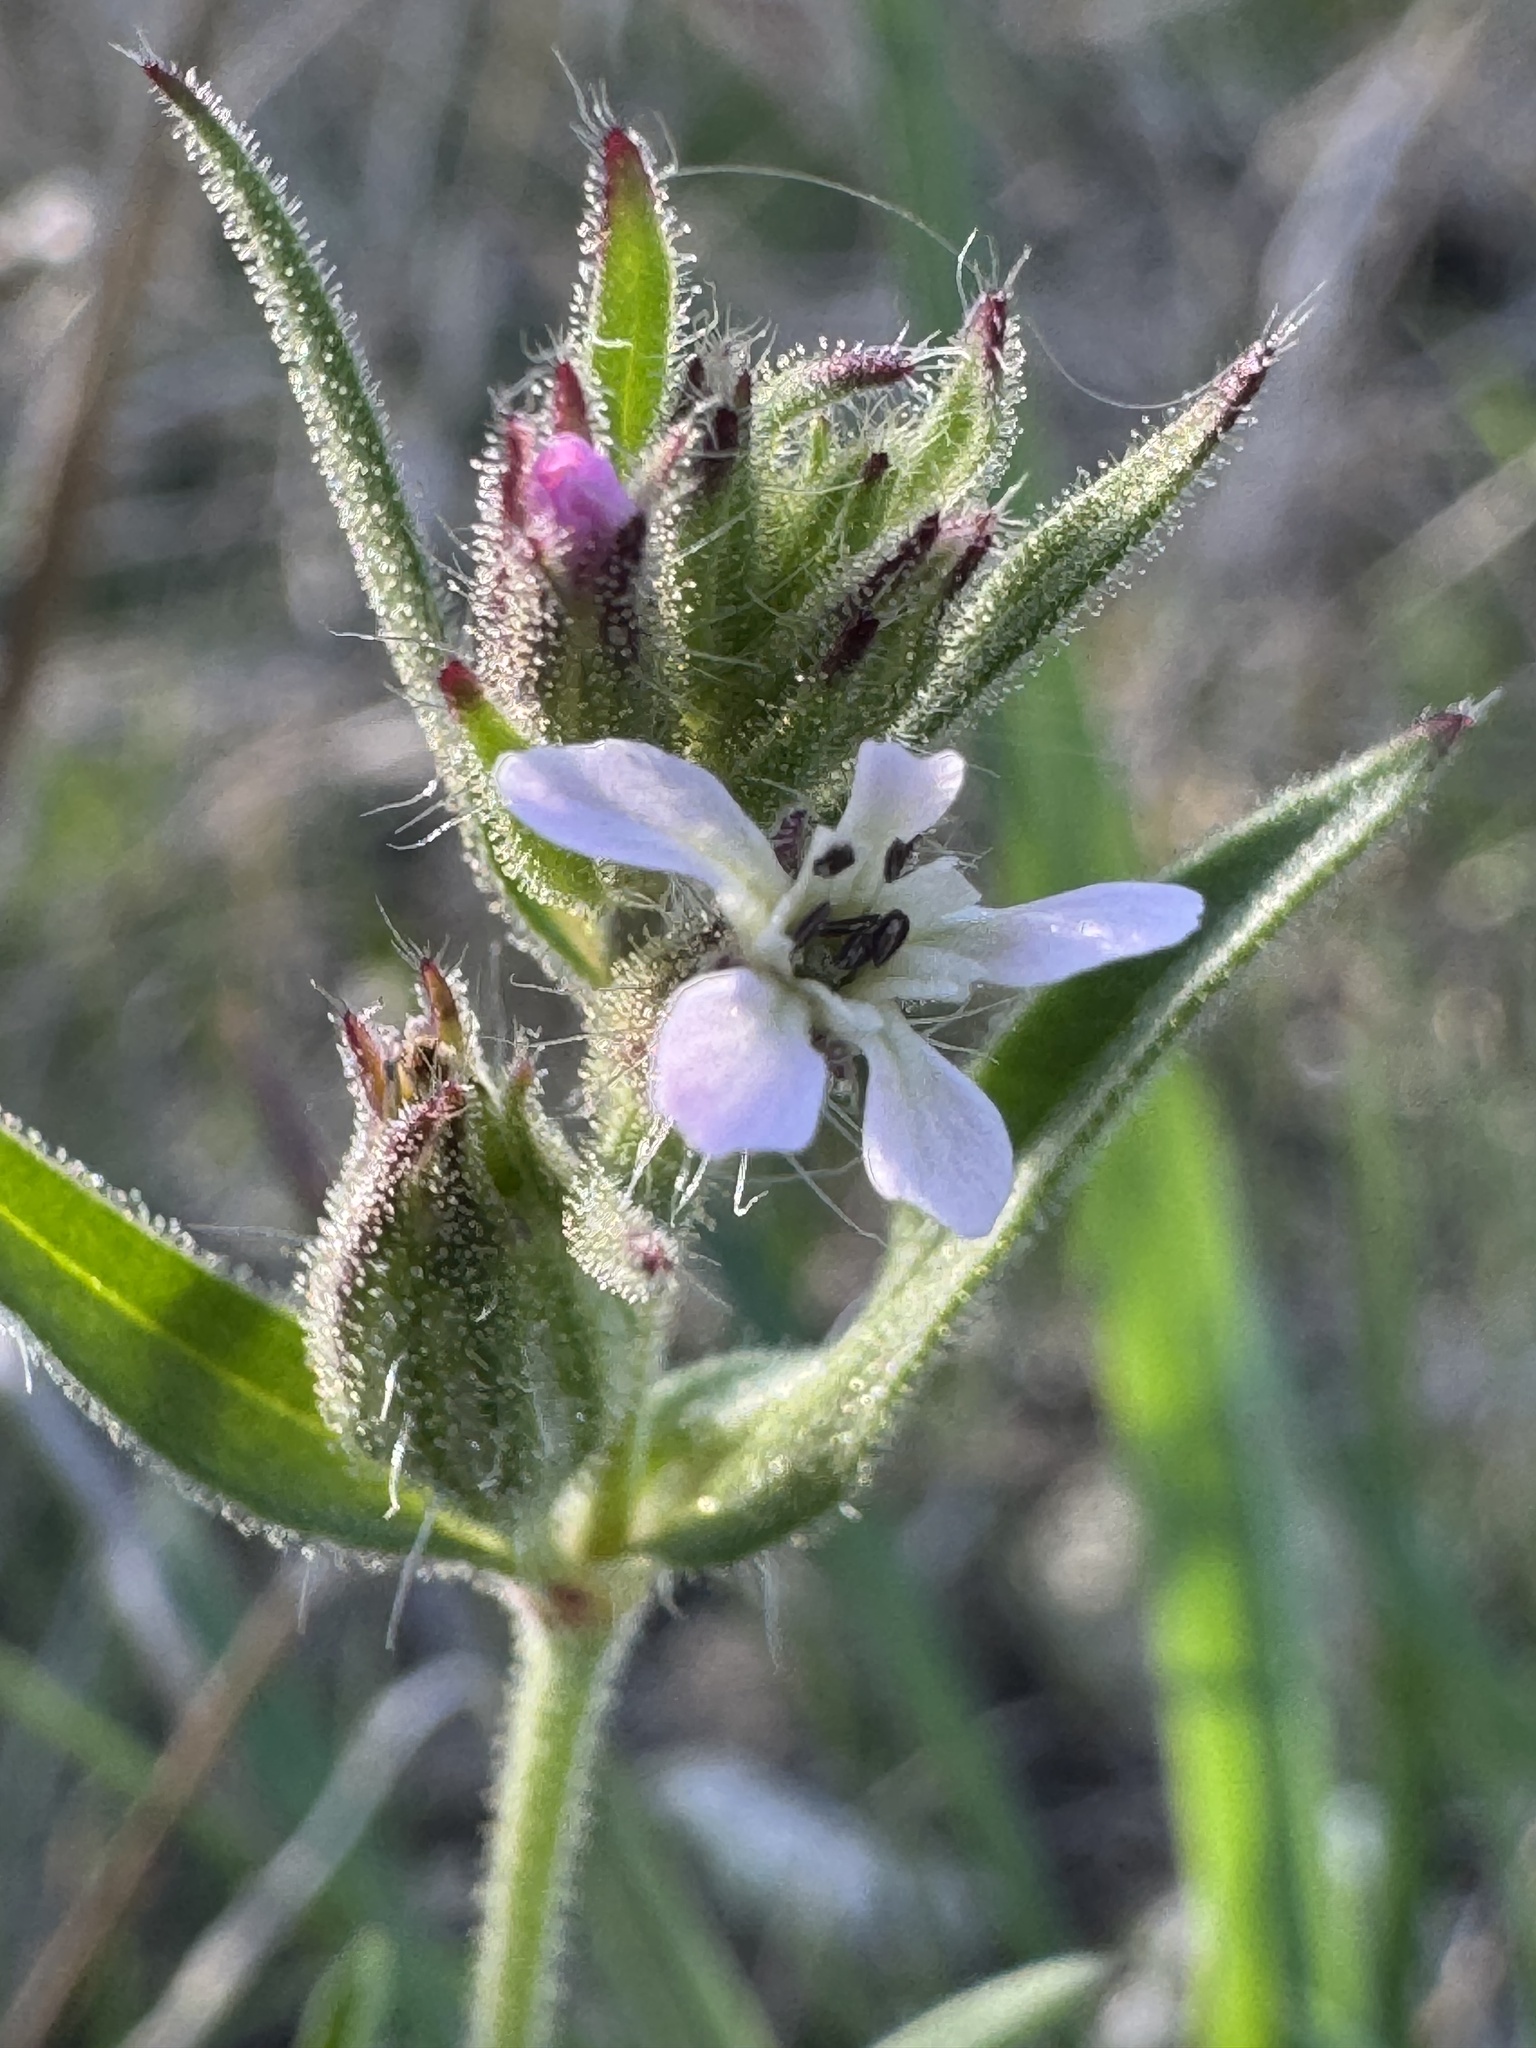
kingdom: Plantae
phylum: Tracheophyta
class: Magnoliopsida
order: Caryophyllales
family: Caryophyllaceae
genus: Silene
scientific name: Silene gallica
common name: Small-flowered catchfly
